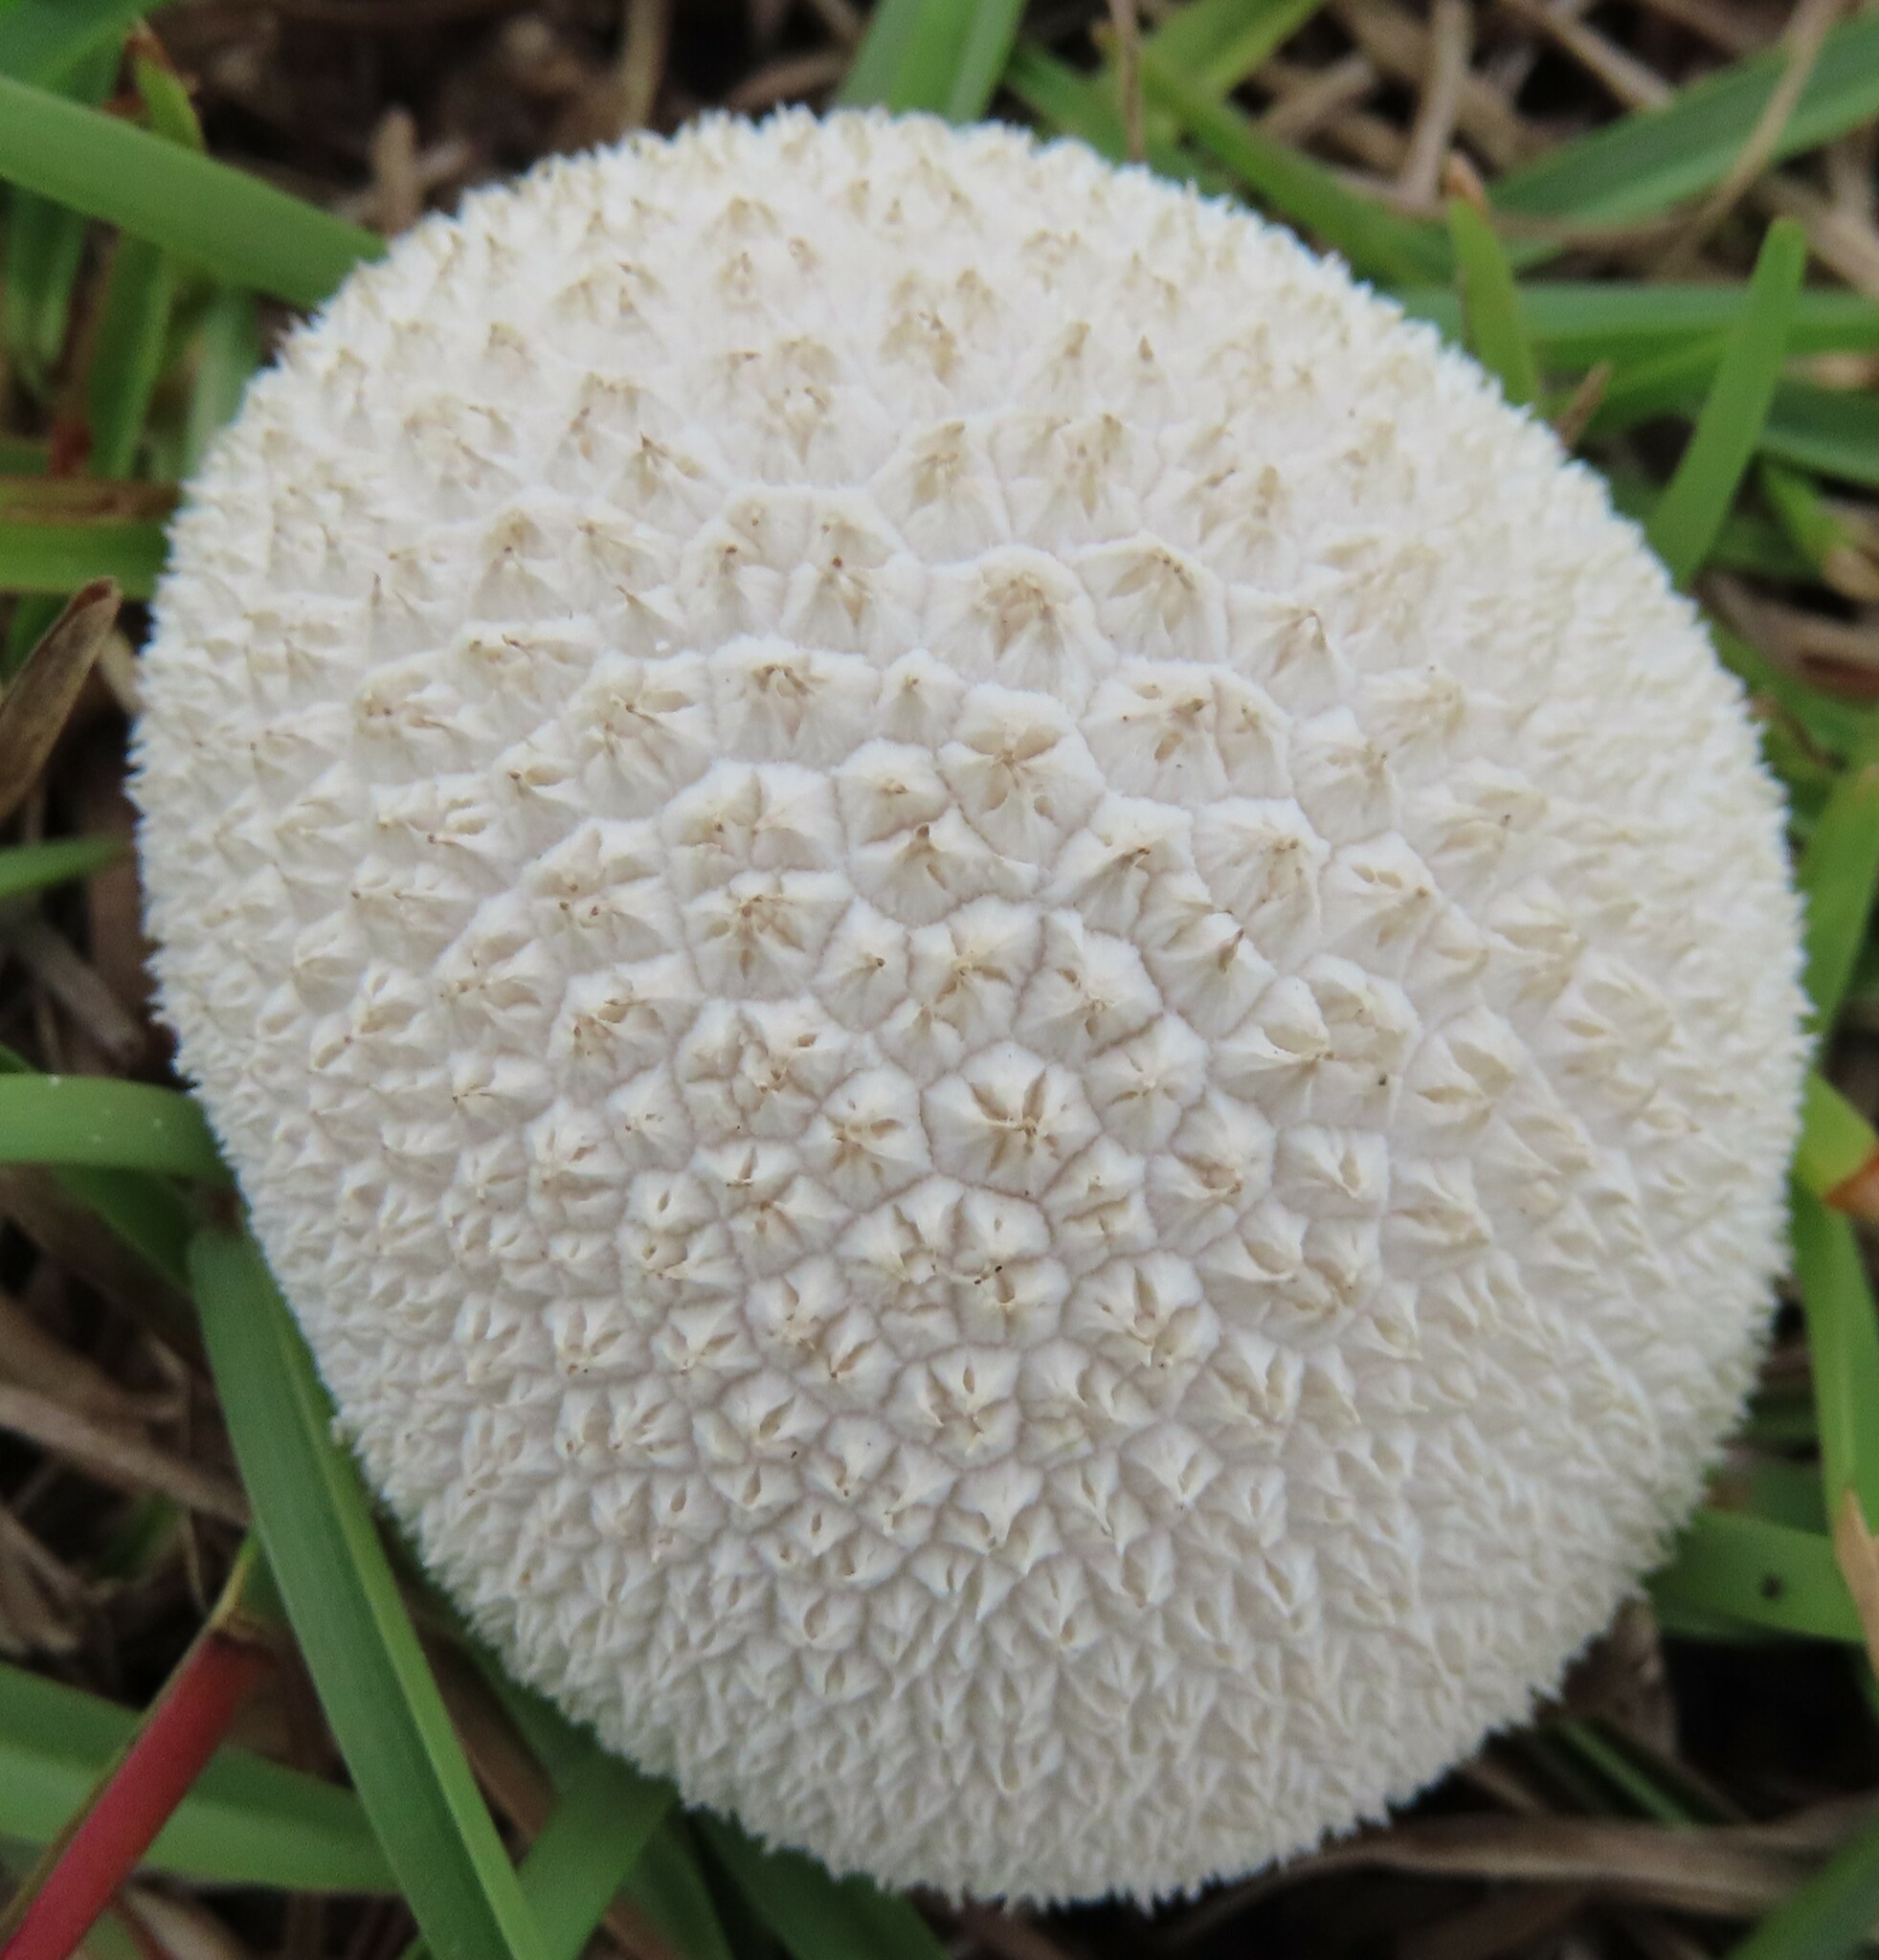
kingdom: Fungi
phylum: Basidiomycota
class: Agaricomycetes
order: Agaricales
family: Agaricaceae
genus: Lycoperdon
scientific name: Lycoperdon marginatum
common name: Peeling puffball
